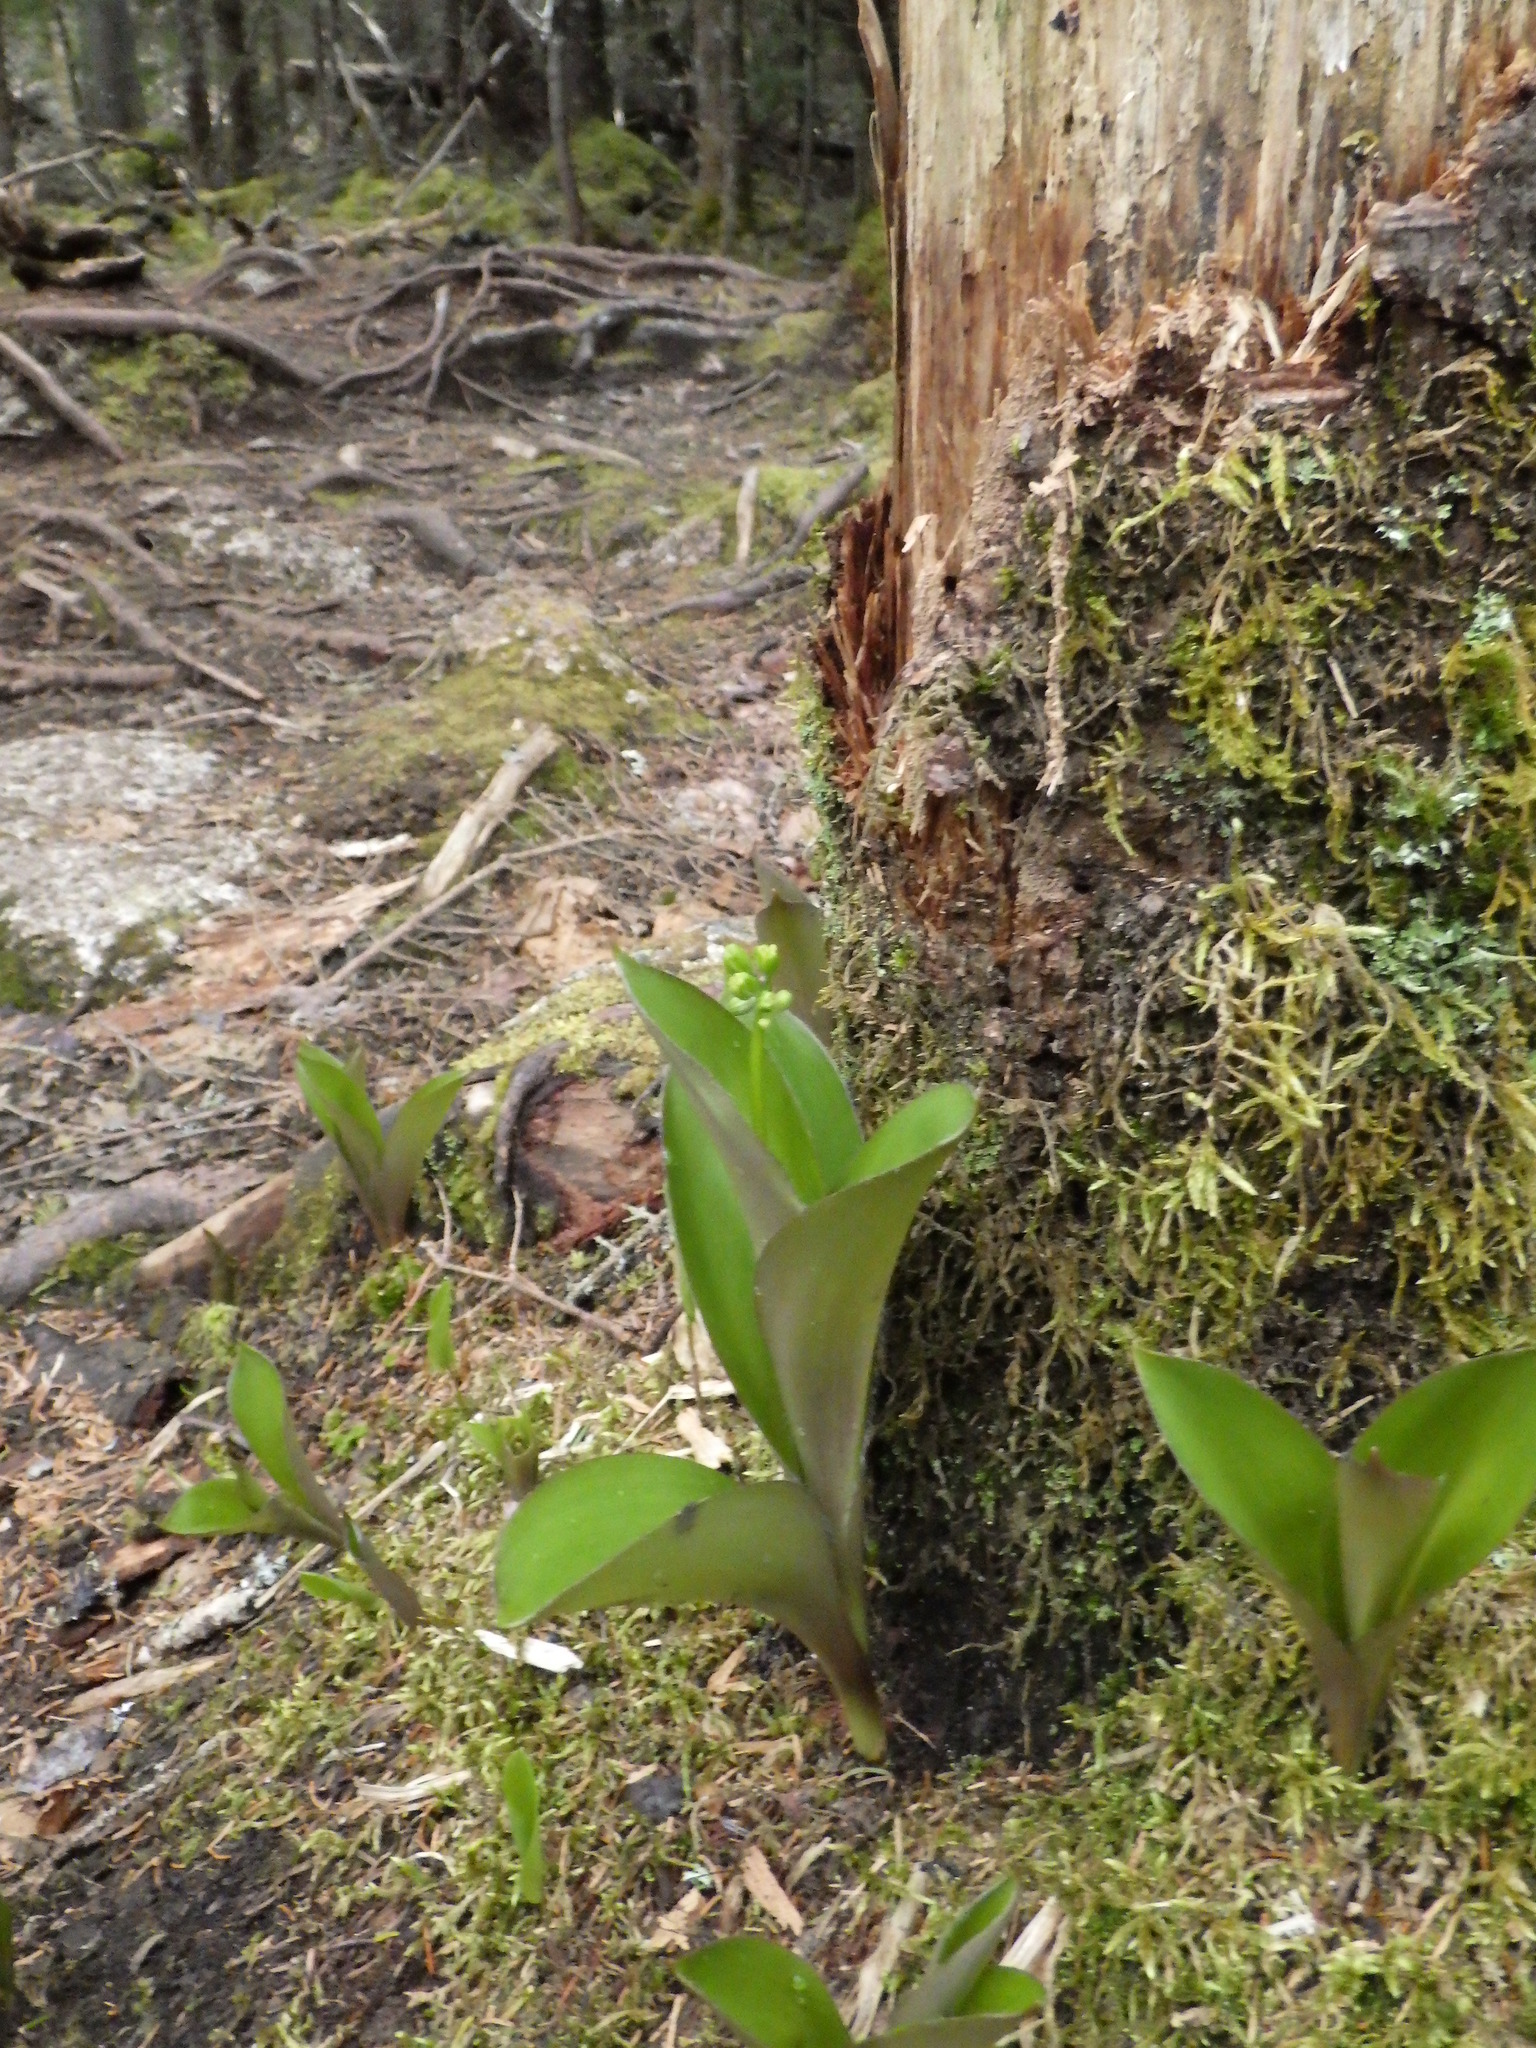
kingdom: Plantae
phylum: Tracheophyta
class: Liliopsida
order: Liliales
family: Liliaceae
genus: Clintonia
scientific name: Clintonia borealis
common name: Yellow clintonia
